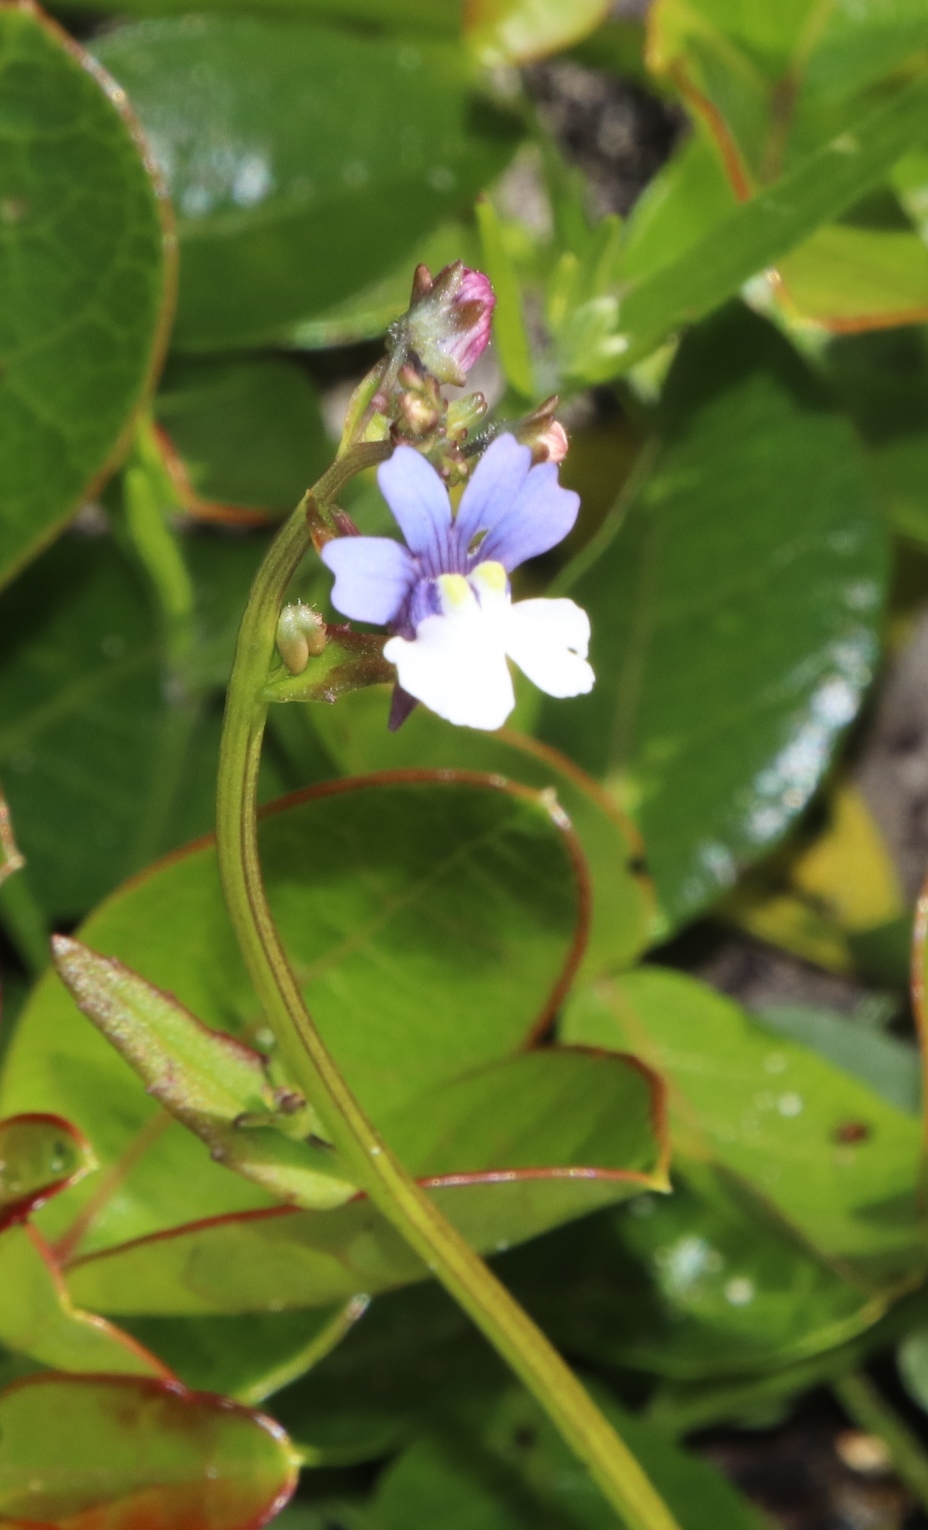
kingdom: Plantae
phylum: Tracheophyta
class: Magnoliopsida
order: Lamiales
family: Scrophulariaceae
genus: Nemesia
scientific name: Nemesia affinis
